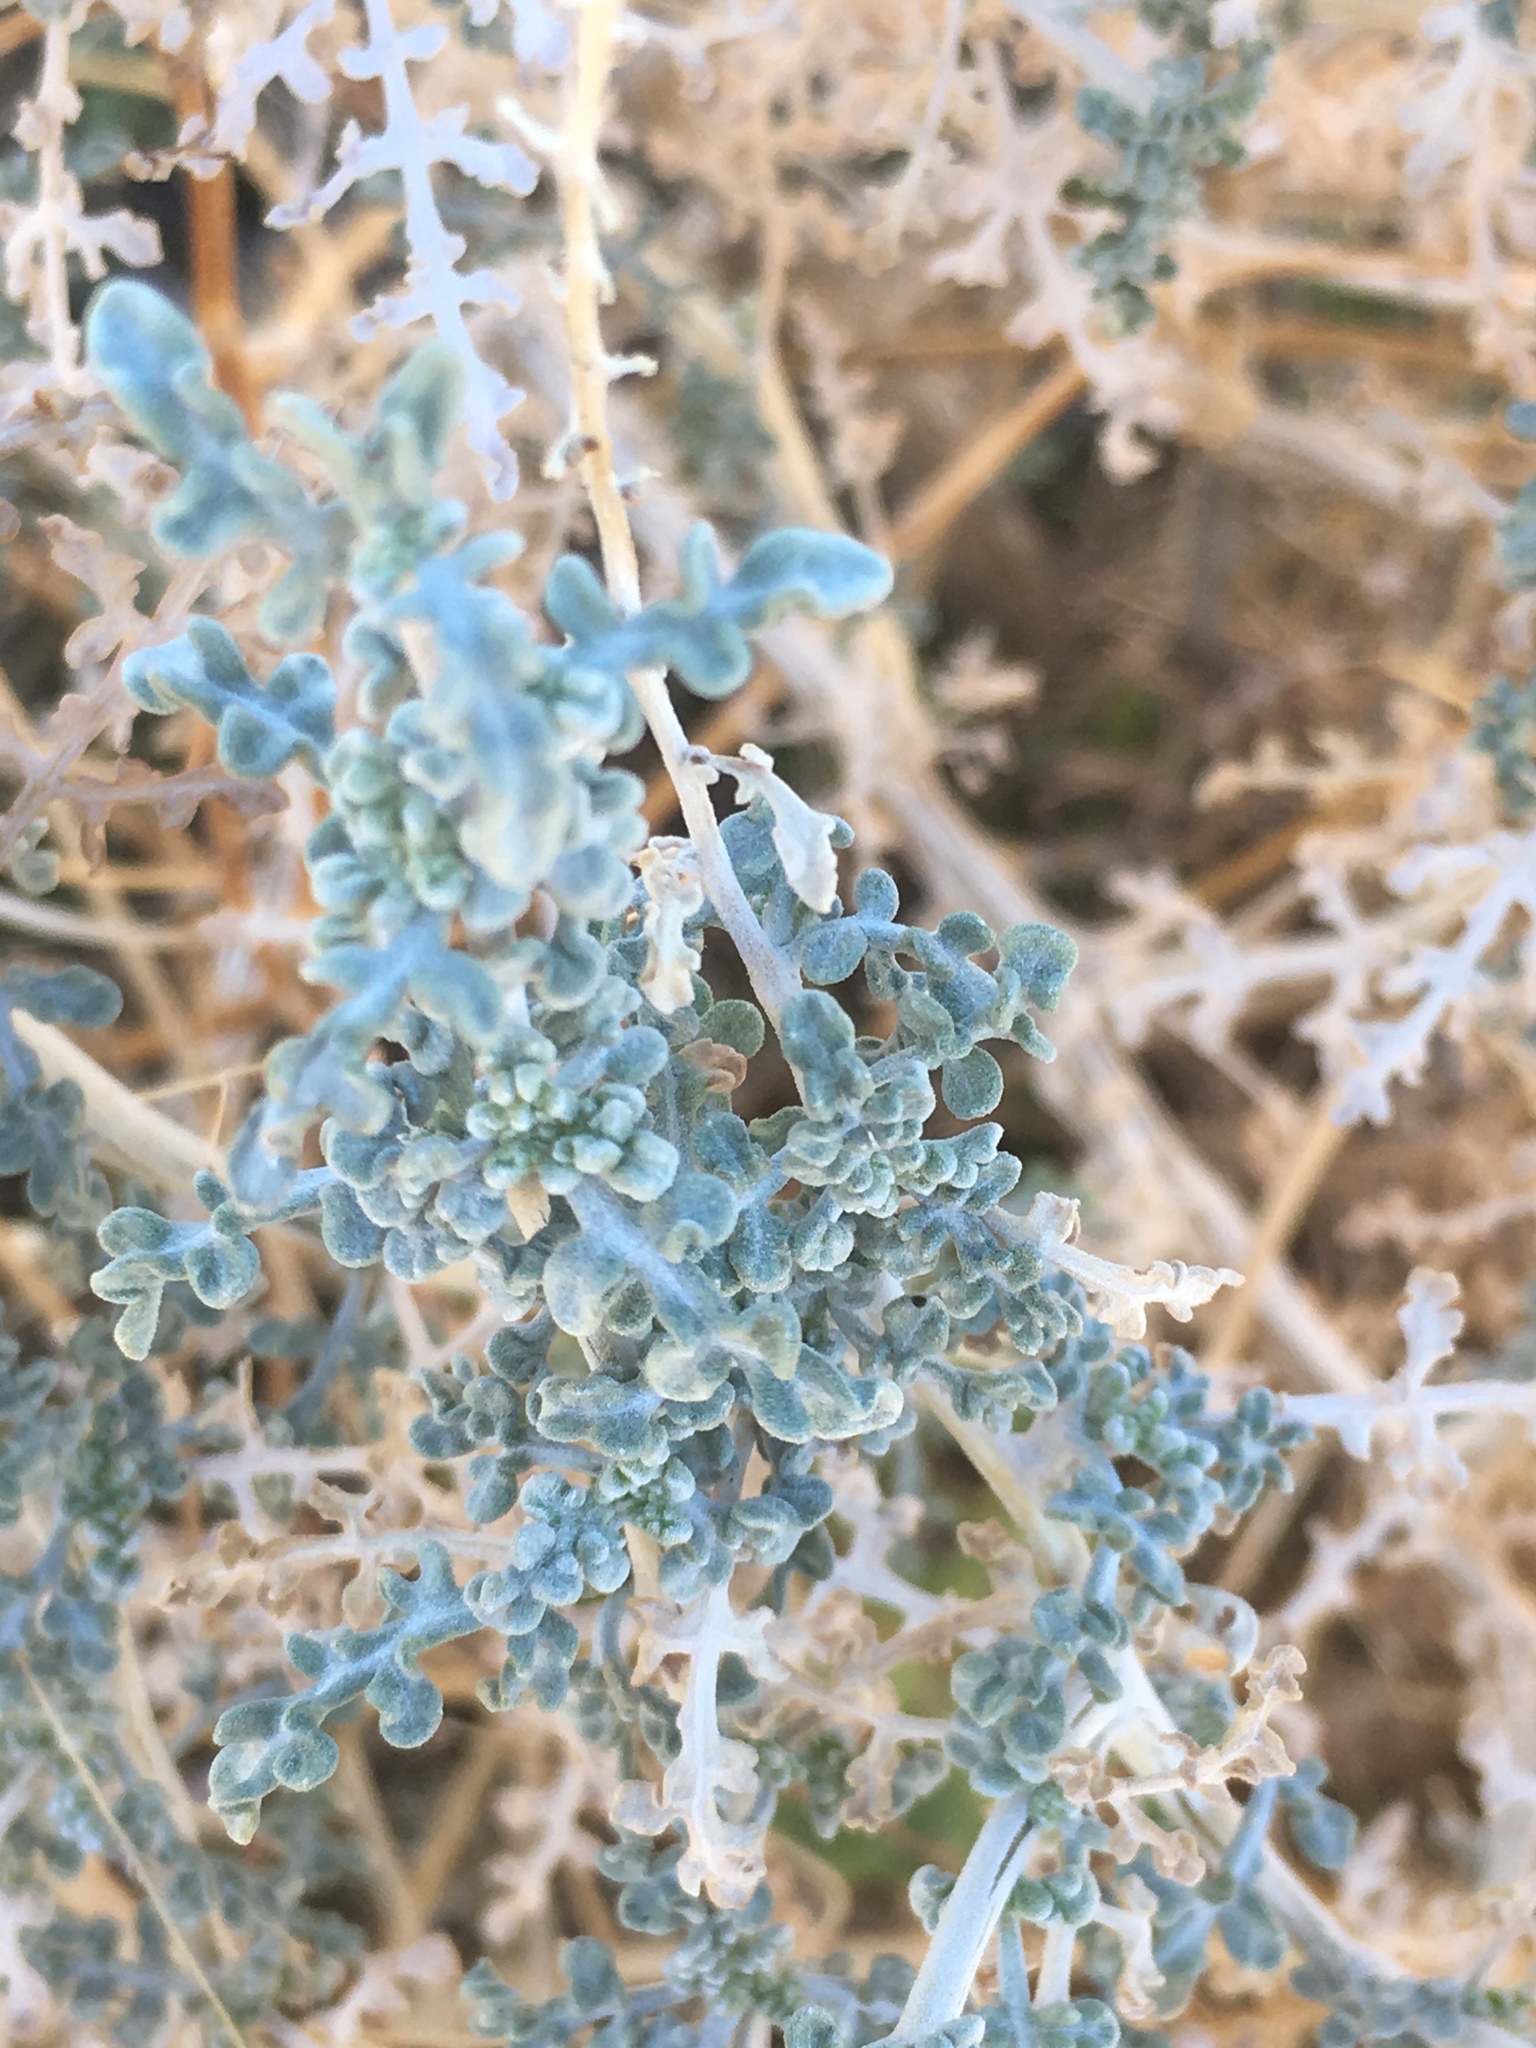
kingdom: Plantae
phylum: Tracheophyta
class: Magnoliopsida
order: Asterales
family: Asteraceae
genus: Ambrosia
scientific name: Ambrosia dumosa
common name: Bur-sage
